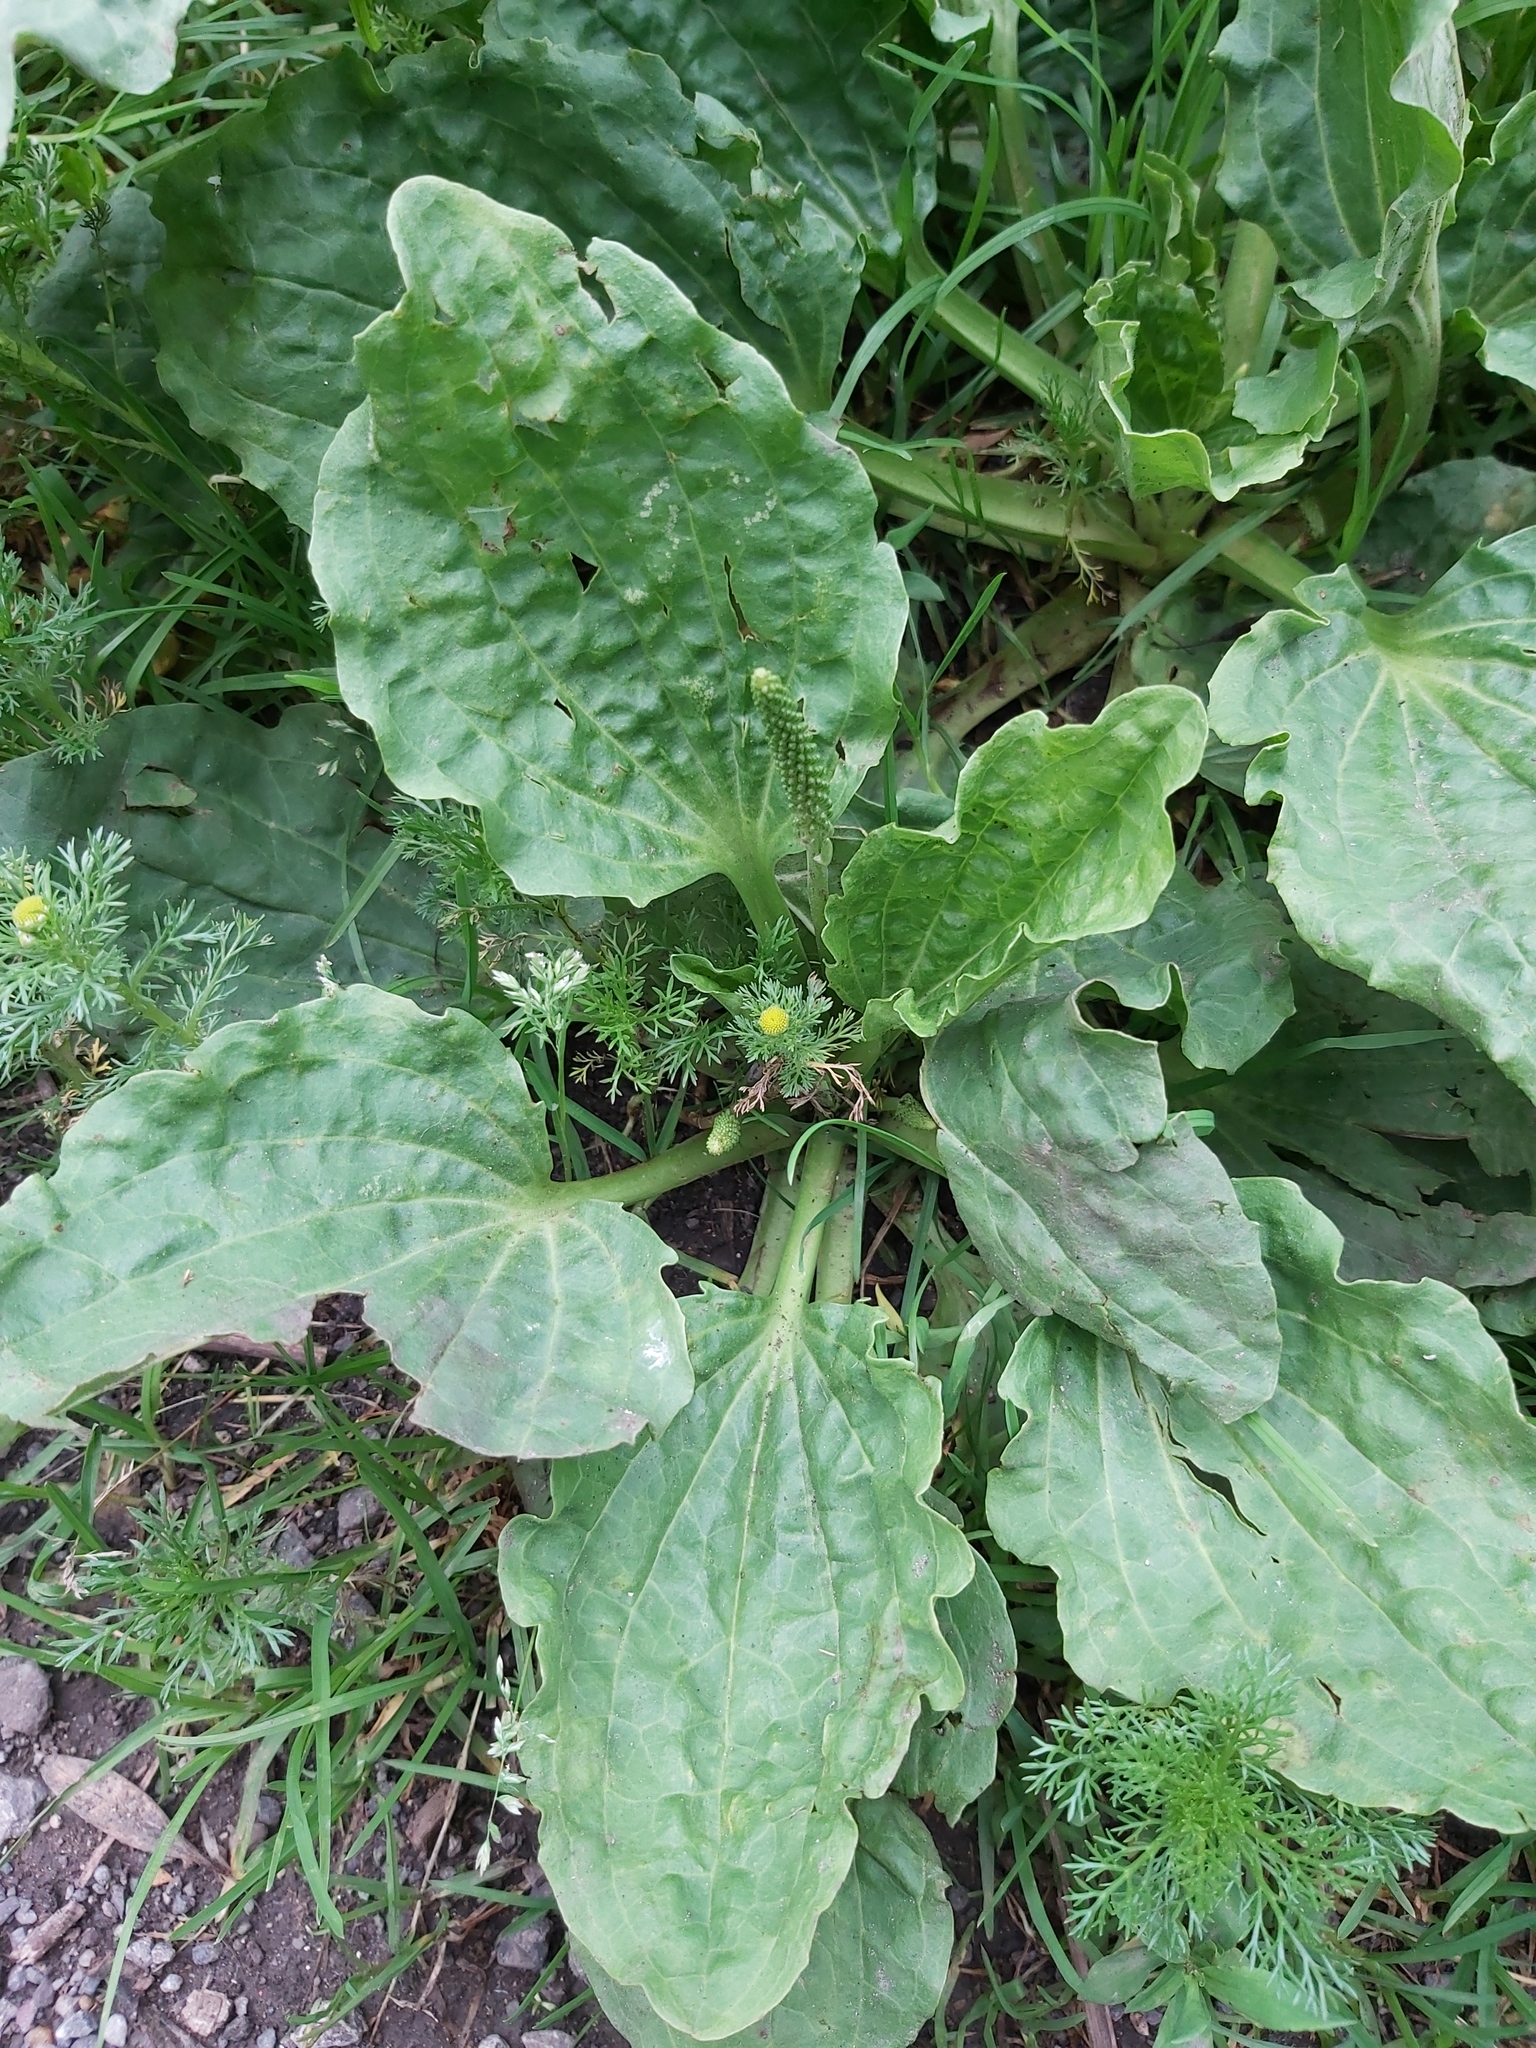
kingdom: Plantae
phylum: Tracheophyta
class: Magnoliopsida
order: Lamiales
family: Plantaginaceae
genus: Plantago
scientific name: Plantago major
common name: Common plantain
